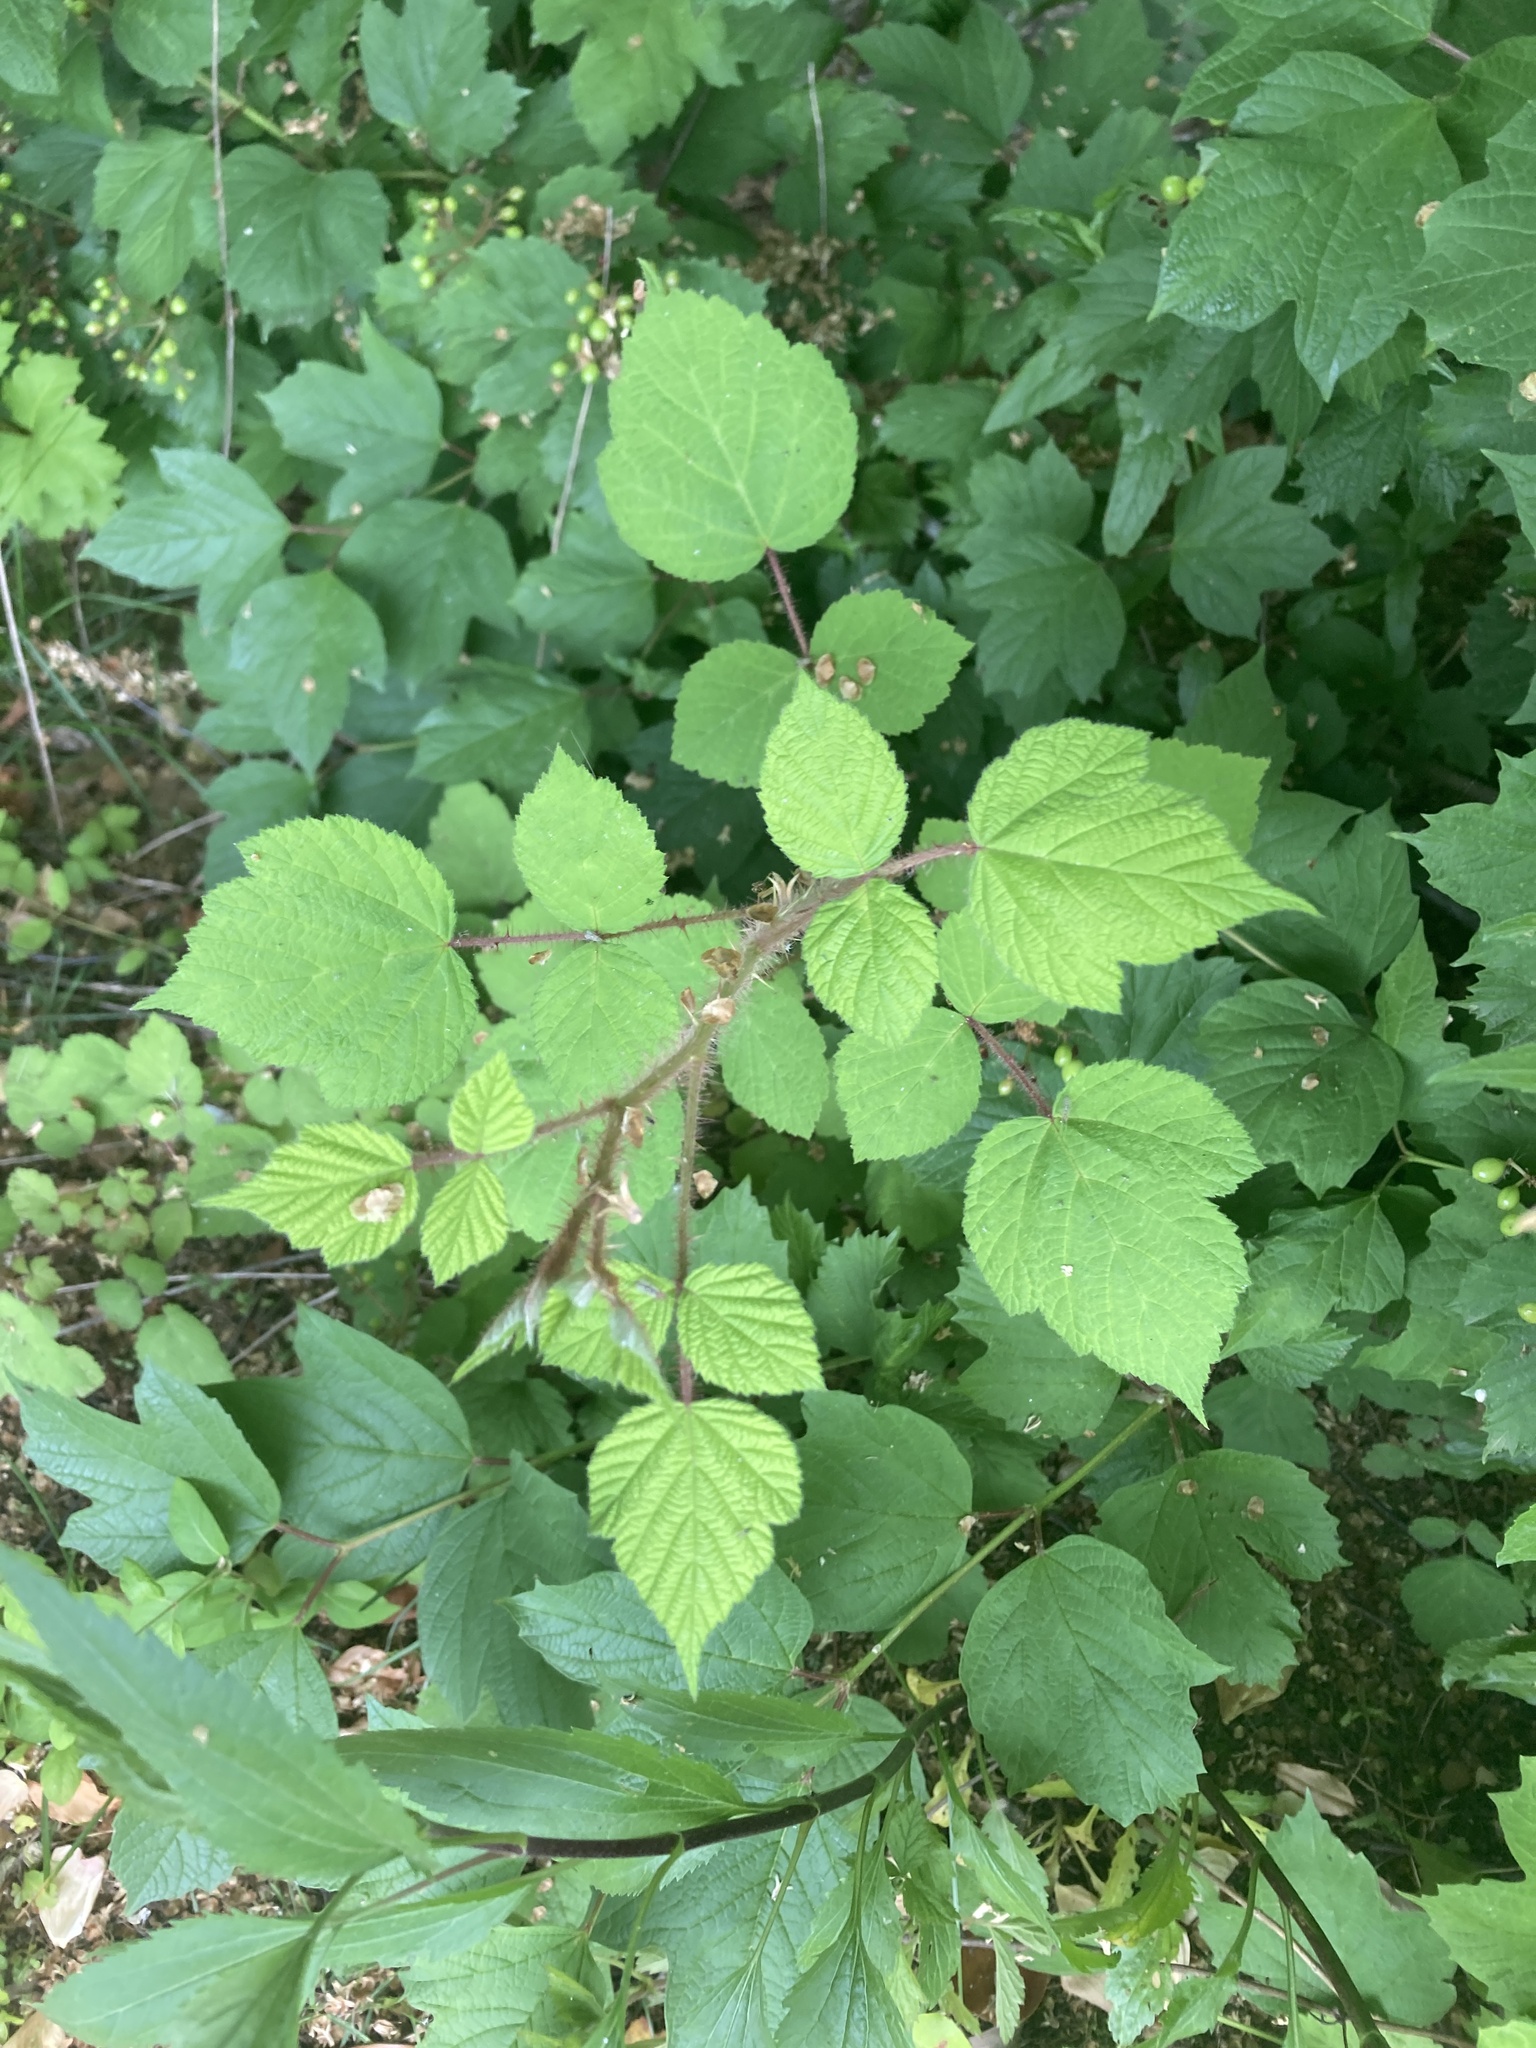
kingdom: Plantae
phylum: Tracheophyta
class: Magnoliopsida
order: Rosales
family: Rosaceae
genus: Rubus
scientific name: Rubus phoenicolasius
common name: Japanese wineberry
